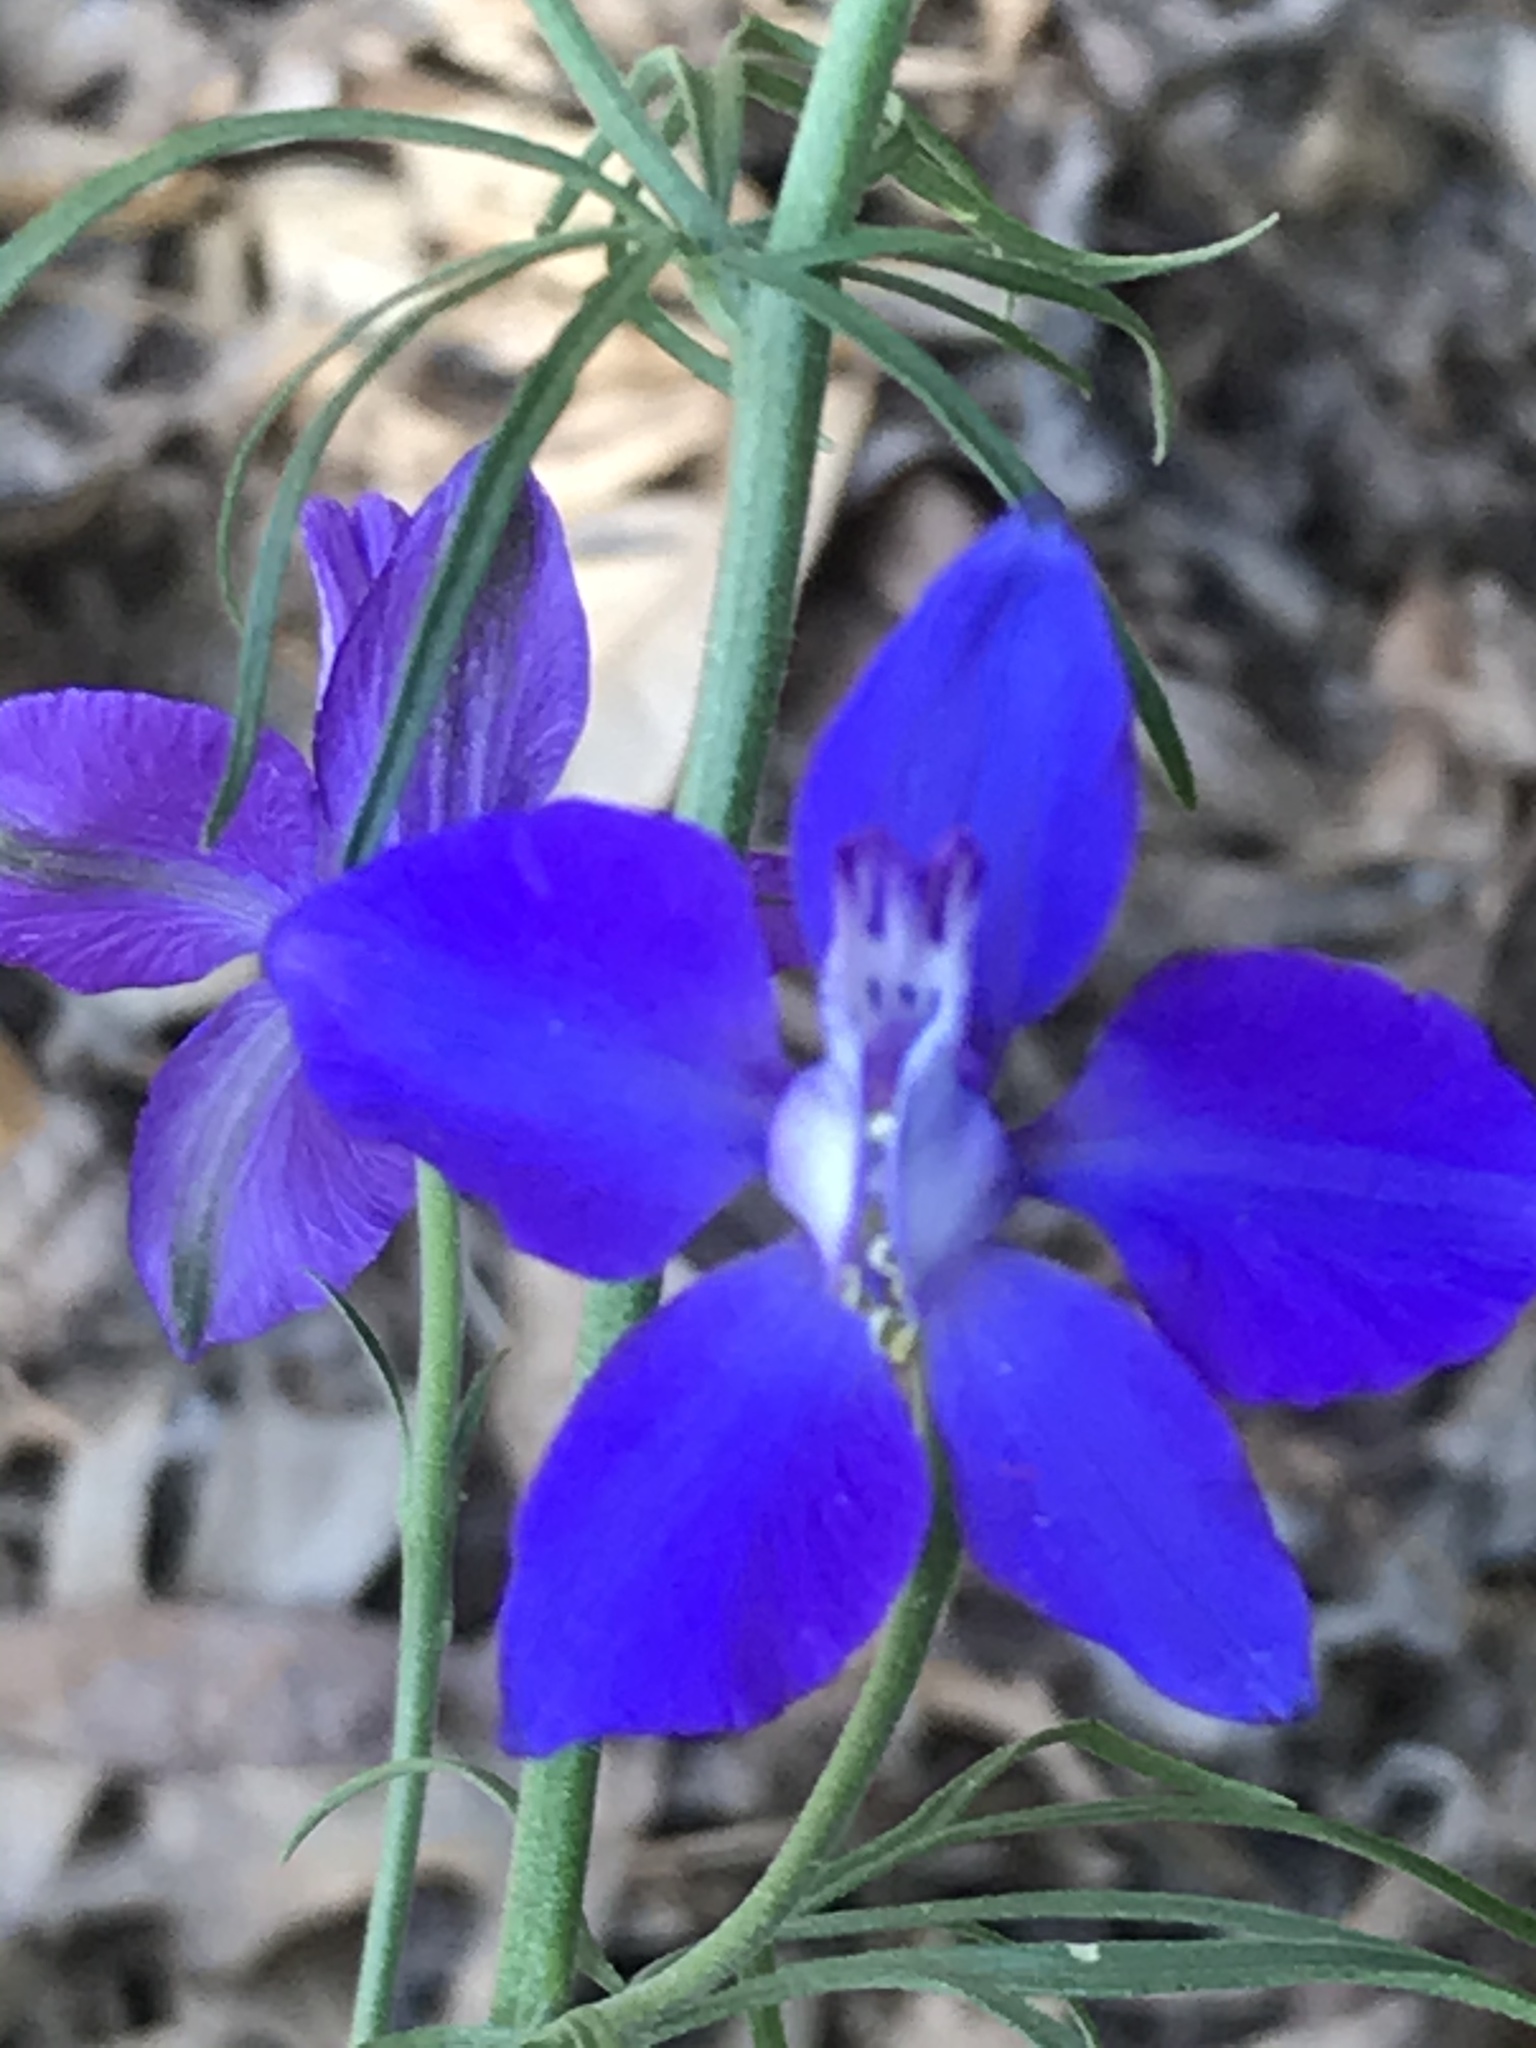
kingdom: Plantae
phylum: Tracheophyta
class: Magnoliopsida
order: Ranunculales
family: Ranunculaceae
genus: Delphinium
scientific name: Delphinium ajacis
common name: Doubtful knight's-spur
